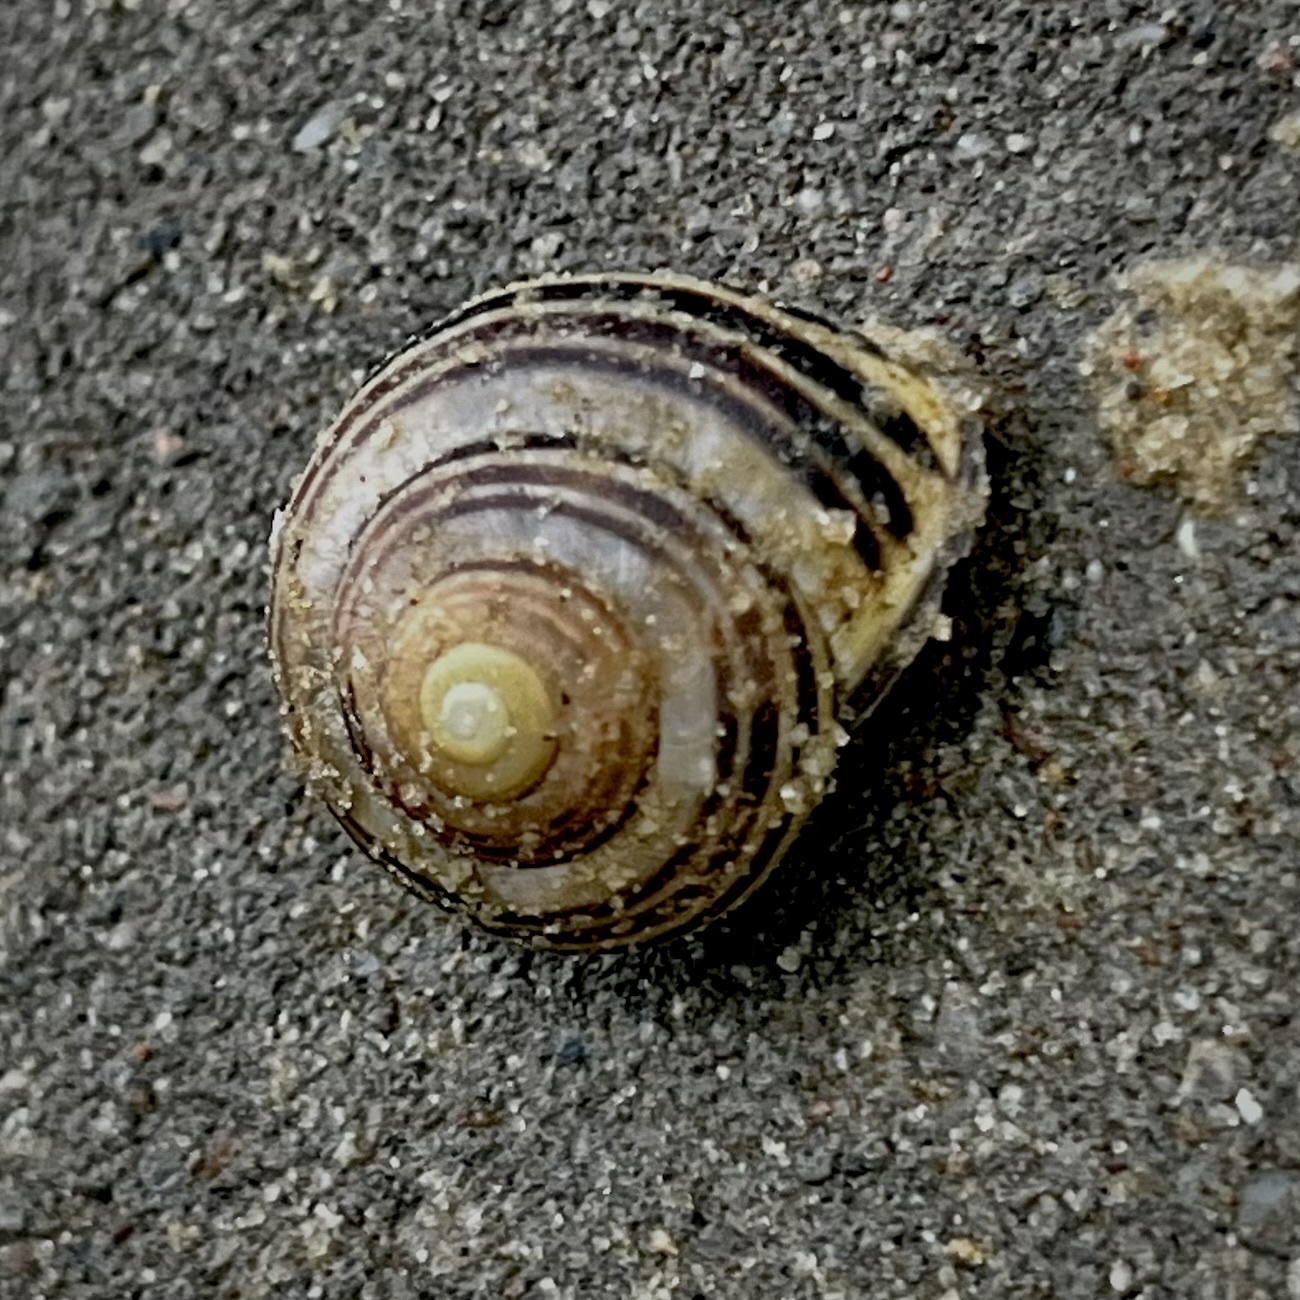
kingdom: Animalia
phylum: Mollusca
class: Gastropoda
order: Stylommatophora
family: Helicidae
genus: Cepaea
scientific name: Cepaea nemoralis
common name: Grovesnail
